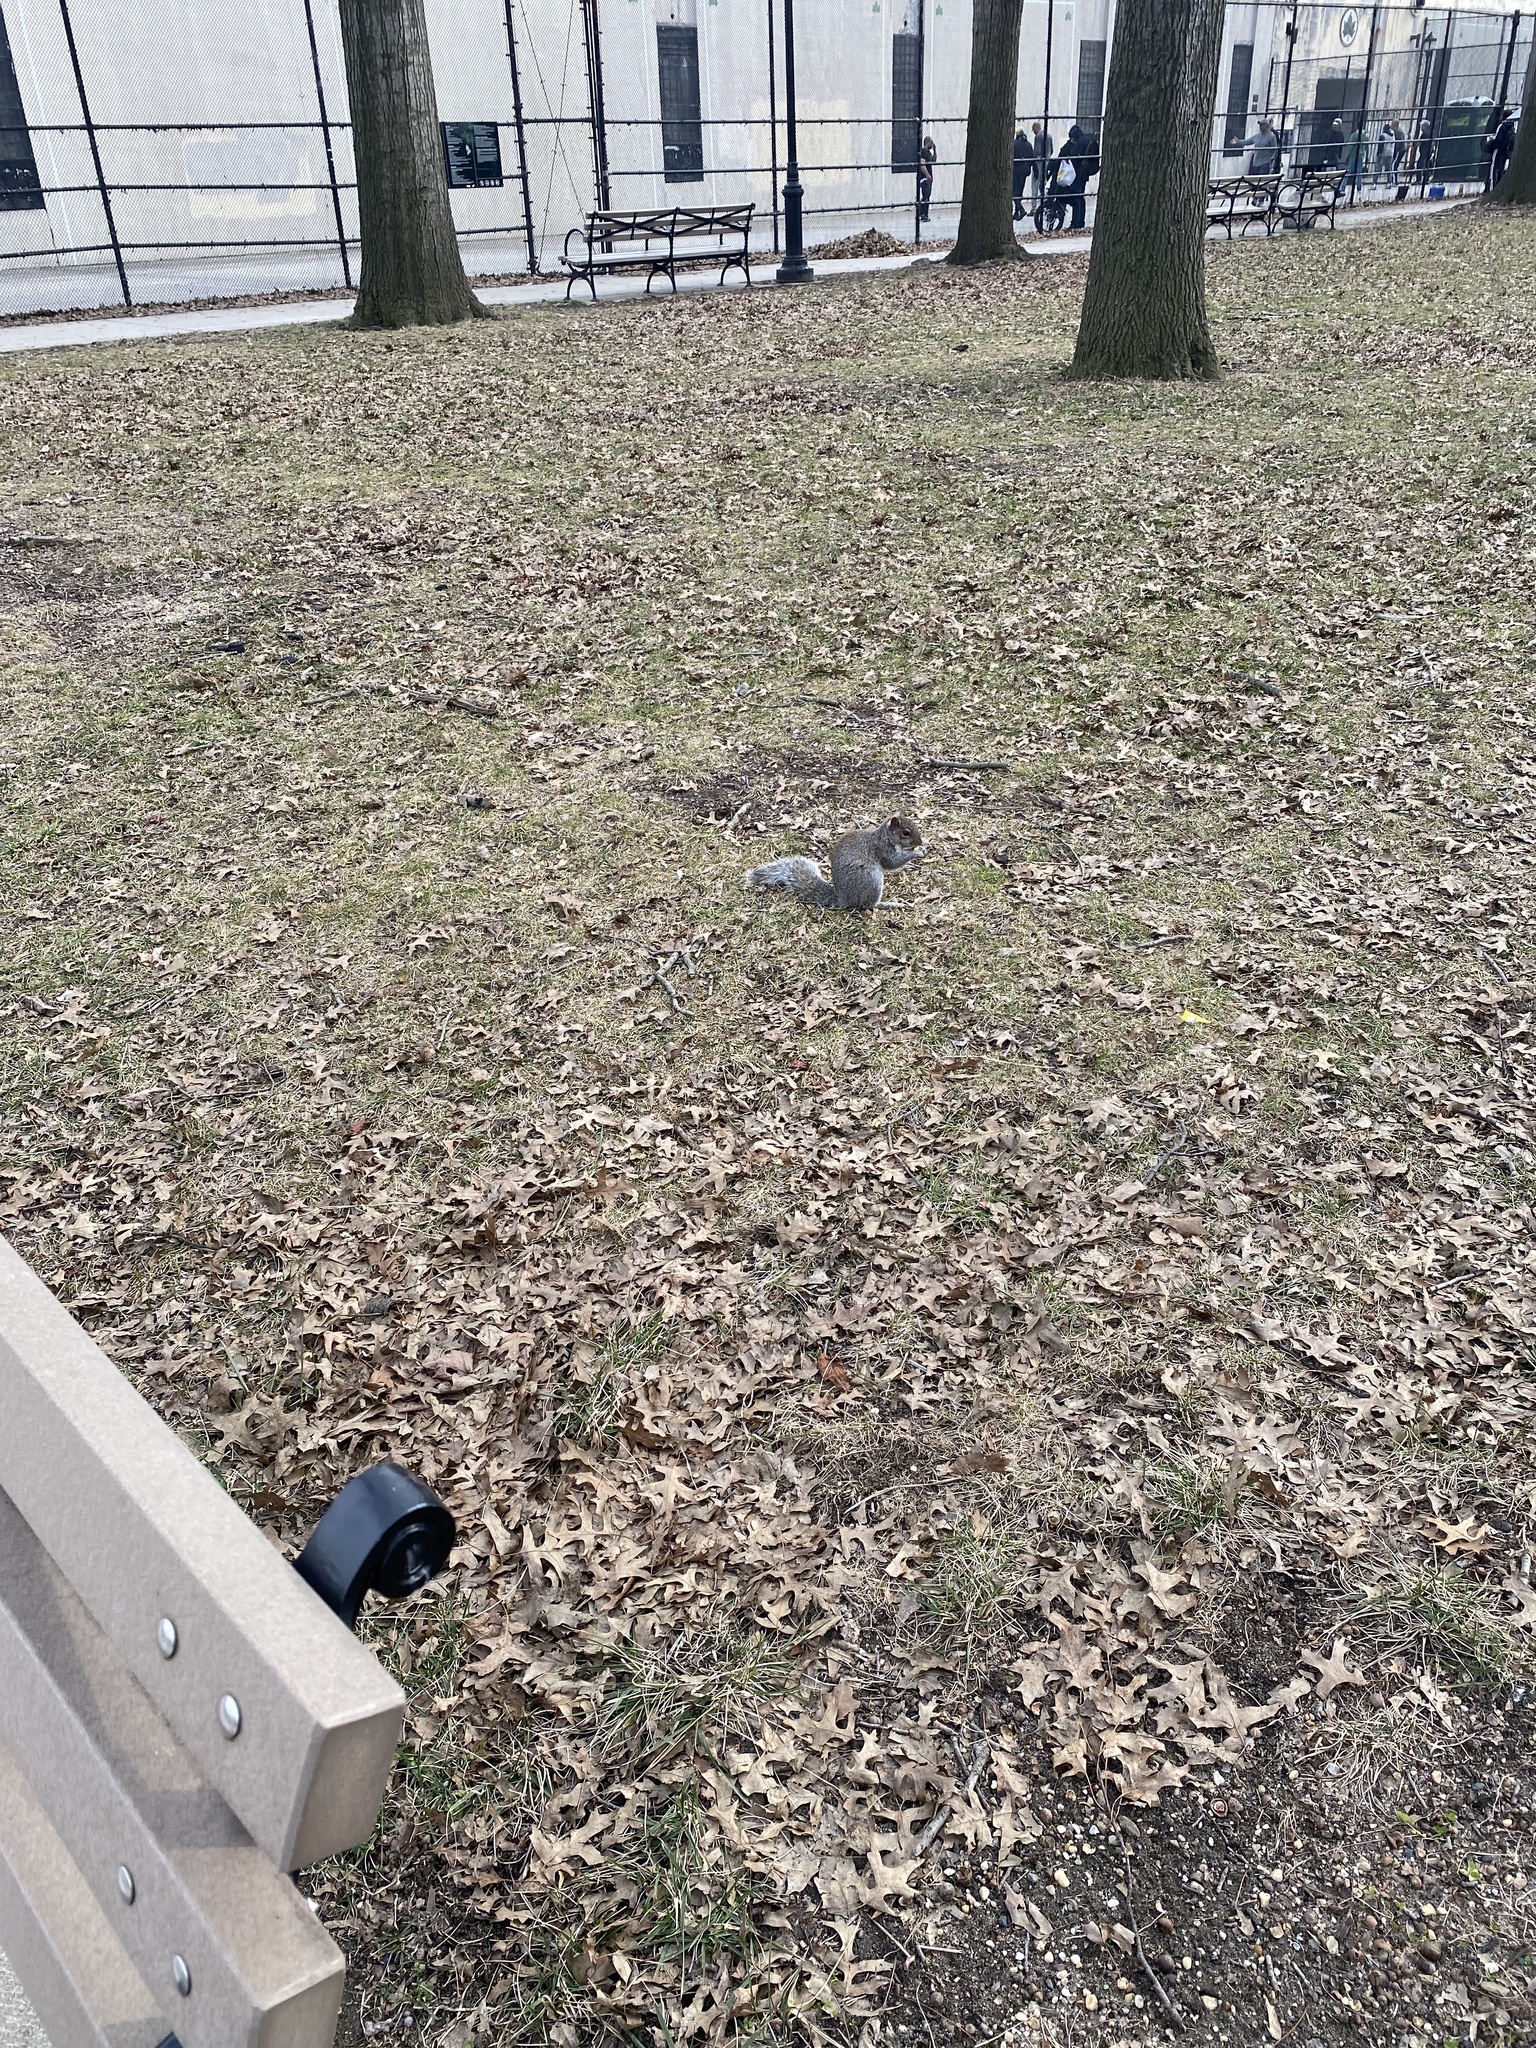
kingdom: Animalia
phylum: Chordata
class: Mammalia
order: Rodentia
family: Sciuridae
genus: Sciurus
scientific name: Sciurus carolinensis
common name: Eastern gray squirrel
